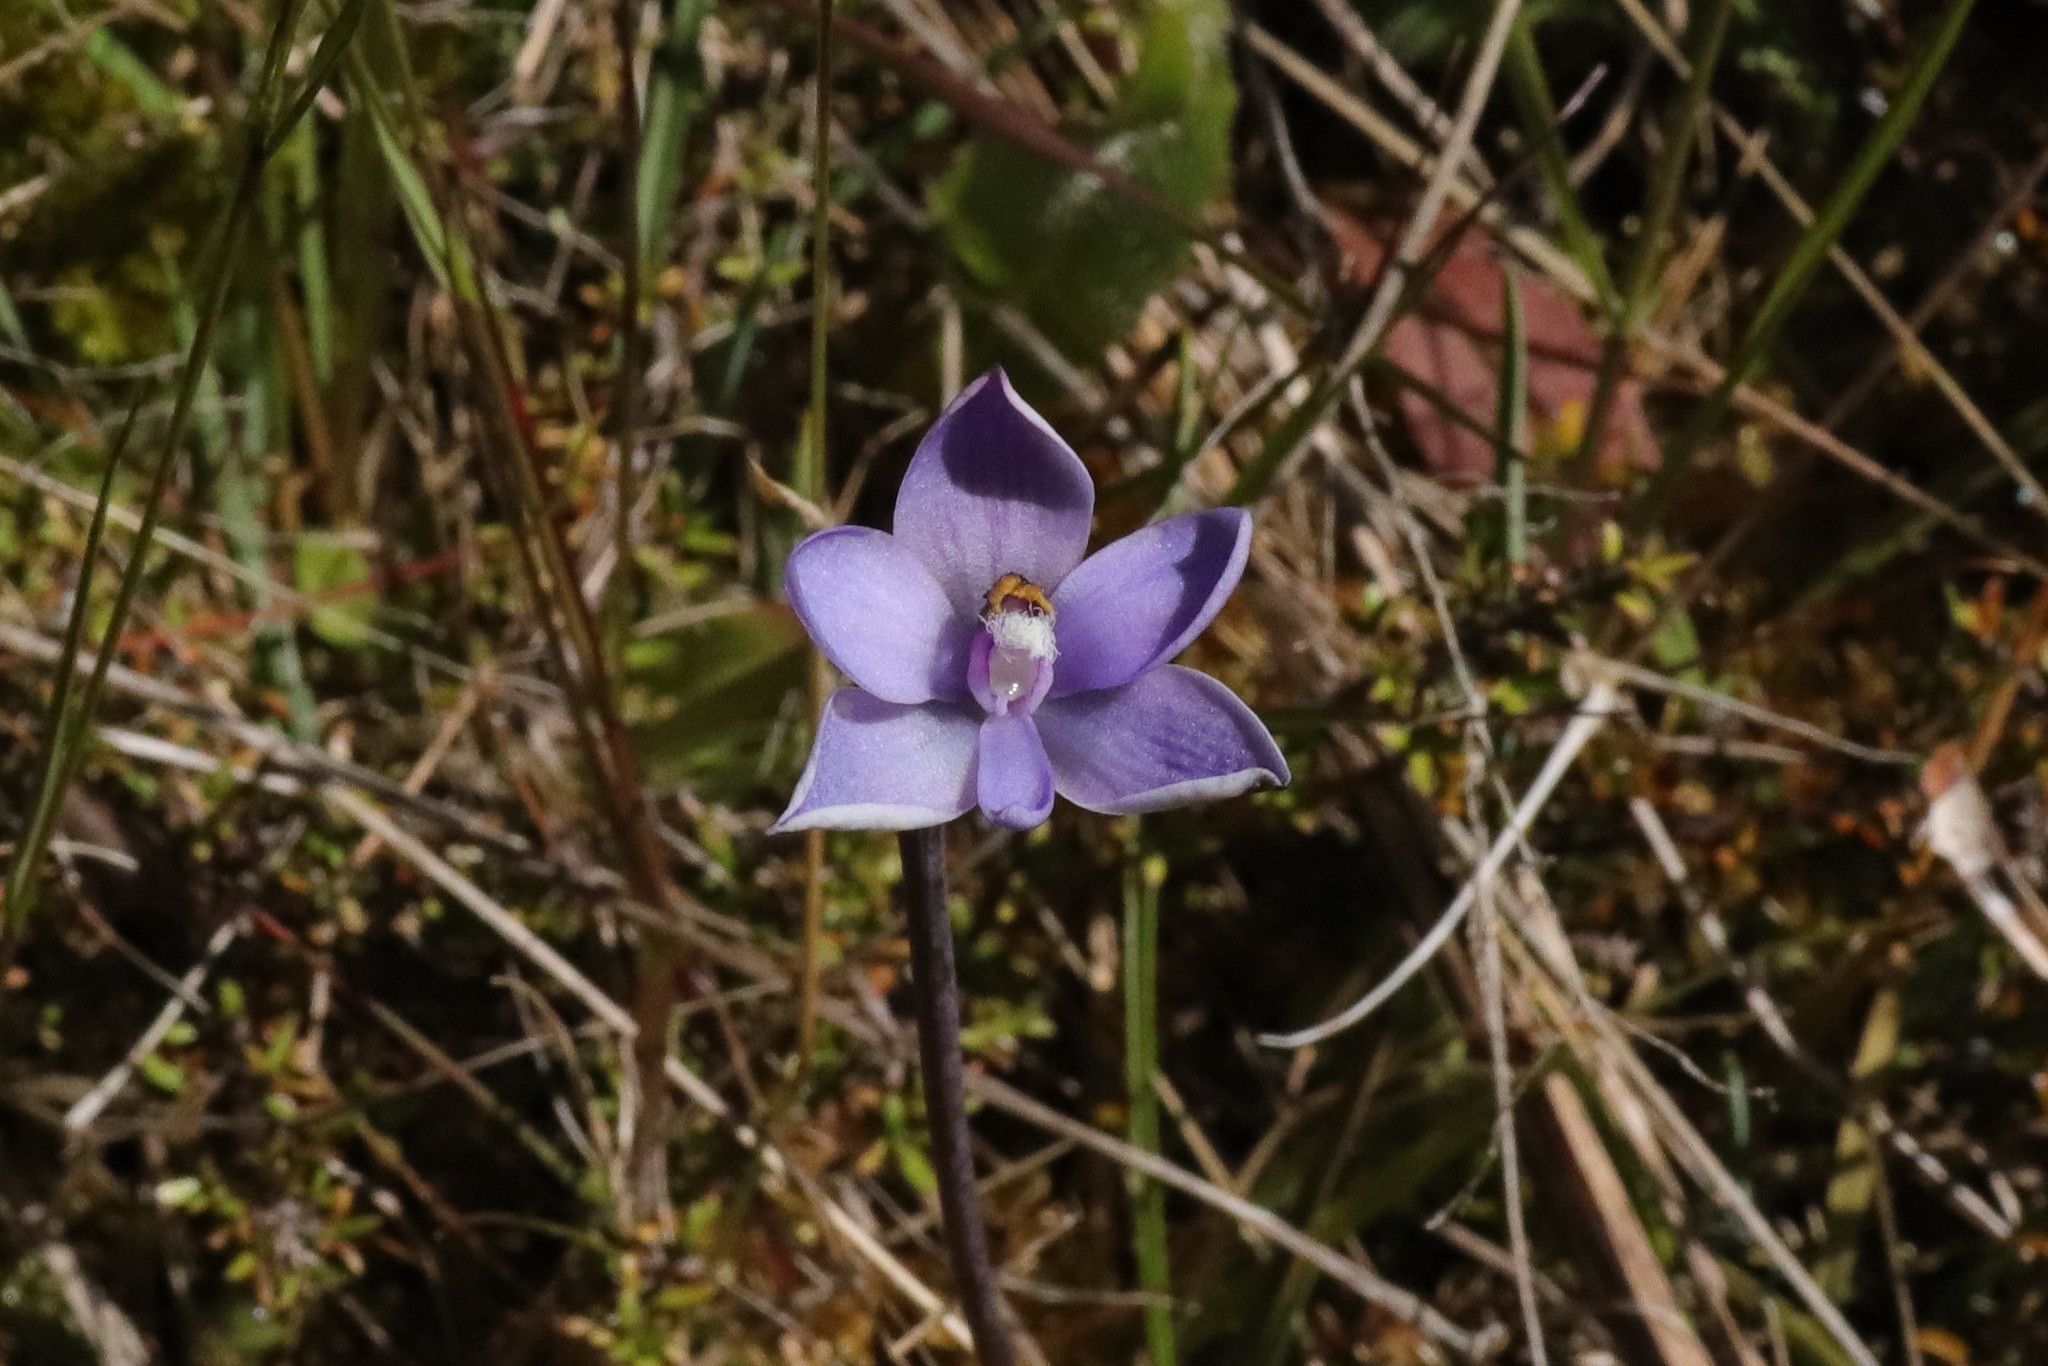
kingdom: Plantae
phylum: Tracheophyta
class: Liliopsida
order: Asparagales
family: Orchidaceae
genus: Thelymitra
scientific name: Thelymitra hatchii
